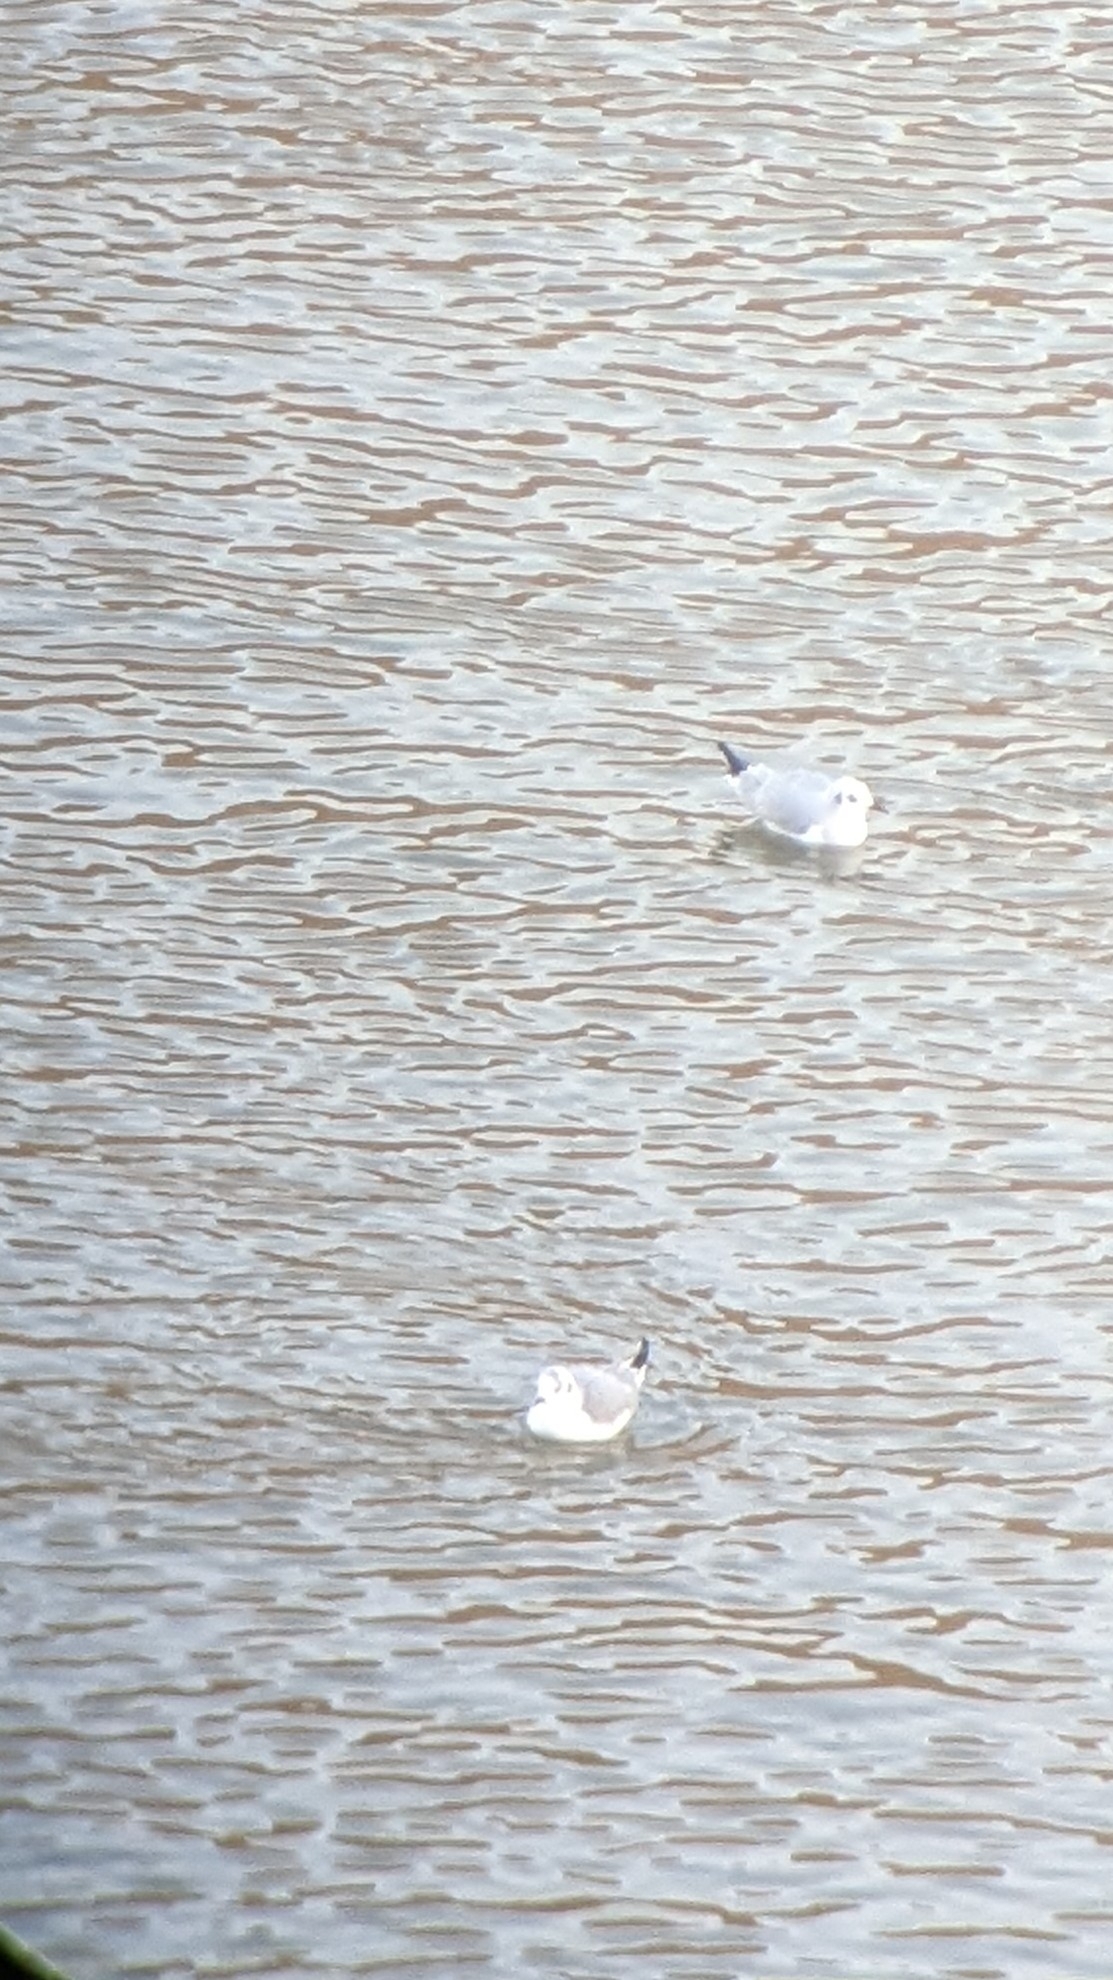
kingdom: Animalia
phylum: Chordata
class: Aves
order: Charadriiformes
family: Laridae
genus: Chroicocephalus
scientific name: Chroicocephalus philadelphia
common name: Bonaparte's gull
